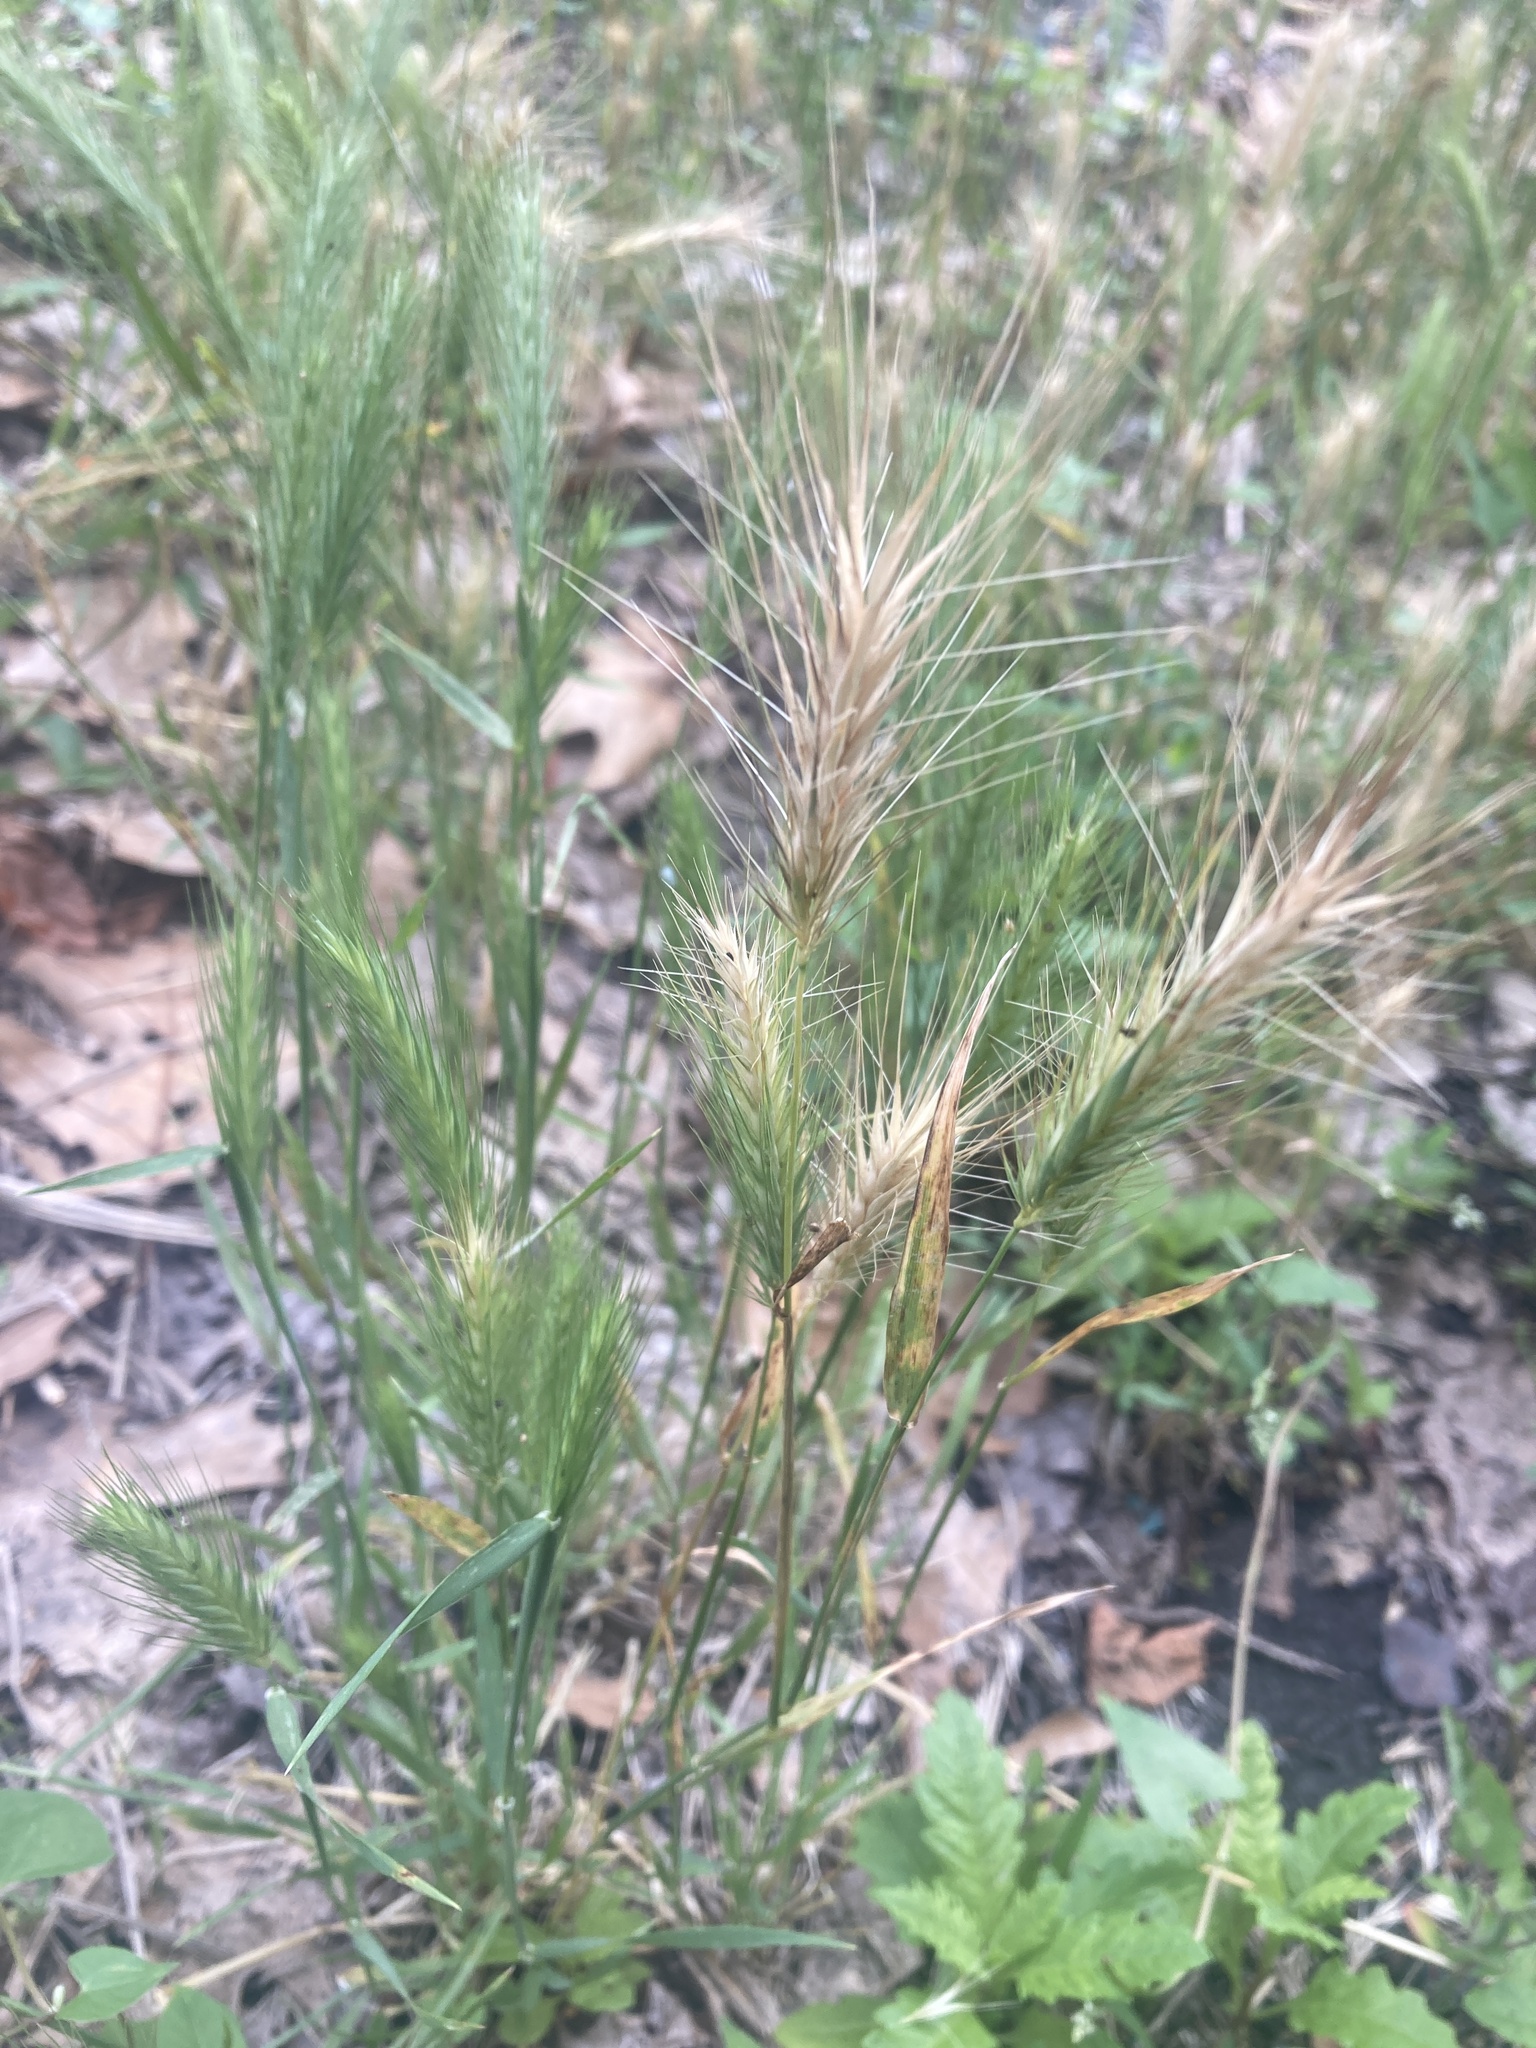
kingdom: Plantae
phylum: Tracheophyta
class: Liliopsida
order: Poales
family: Poaceae
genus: Hordeum
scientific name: Hordeum murinum
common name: Wall barley
